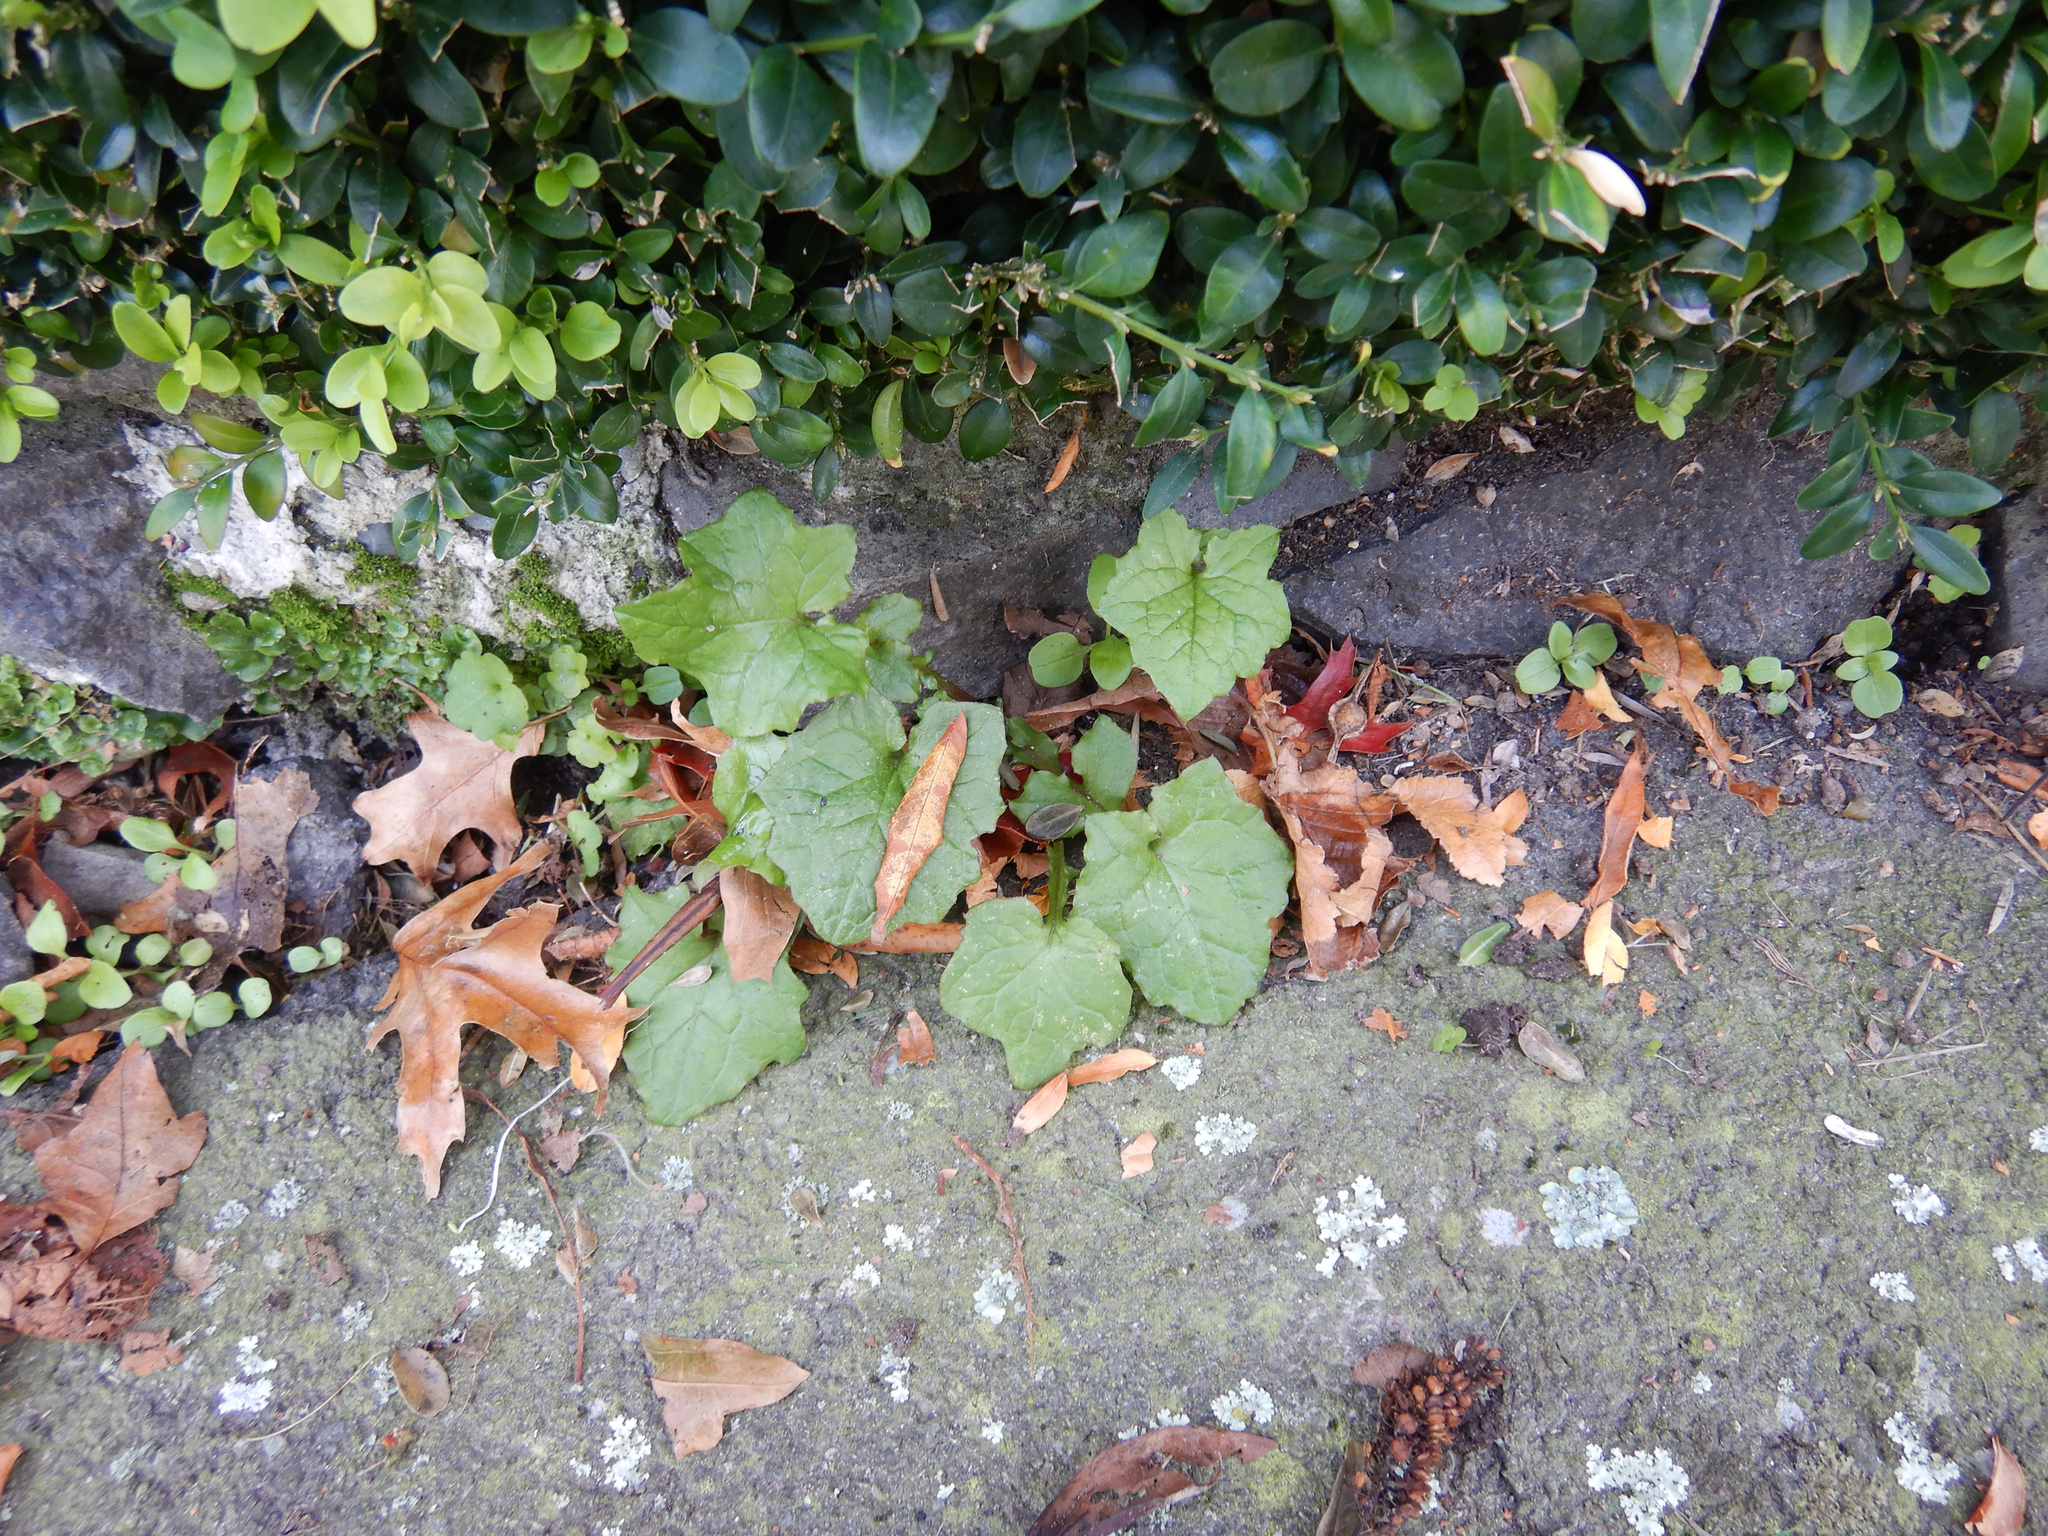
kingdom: Plantae
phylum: Tracheophyta
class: Magnoliopsida
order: Asterales
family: Asteraceae
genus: Mycelis
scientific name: Mycelis muralis
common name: Wall lettuce
